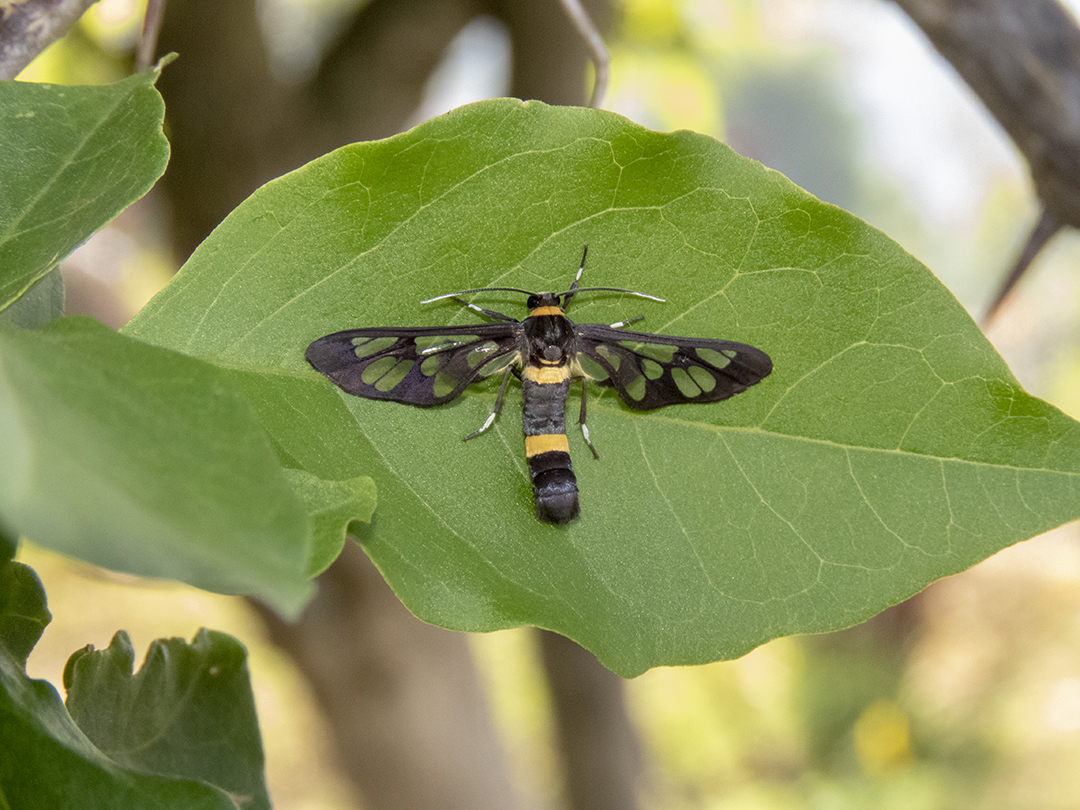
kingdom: Animalia
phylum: Arthropoda
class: Insecta
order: Lepidoptera
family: Erebidae
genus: Syntomoides
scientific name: Syntomoides imaon
